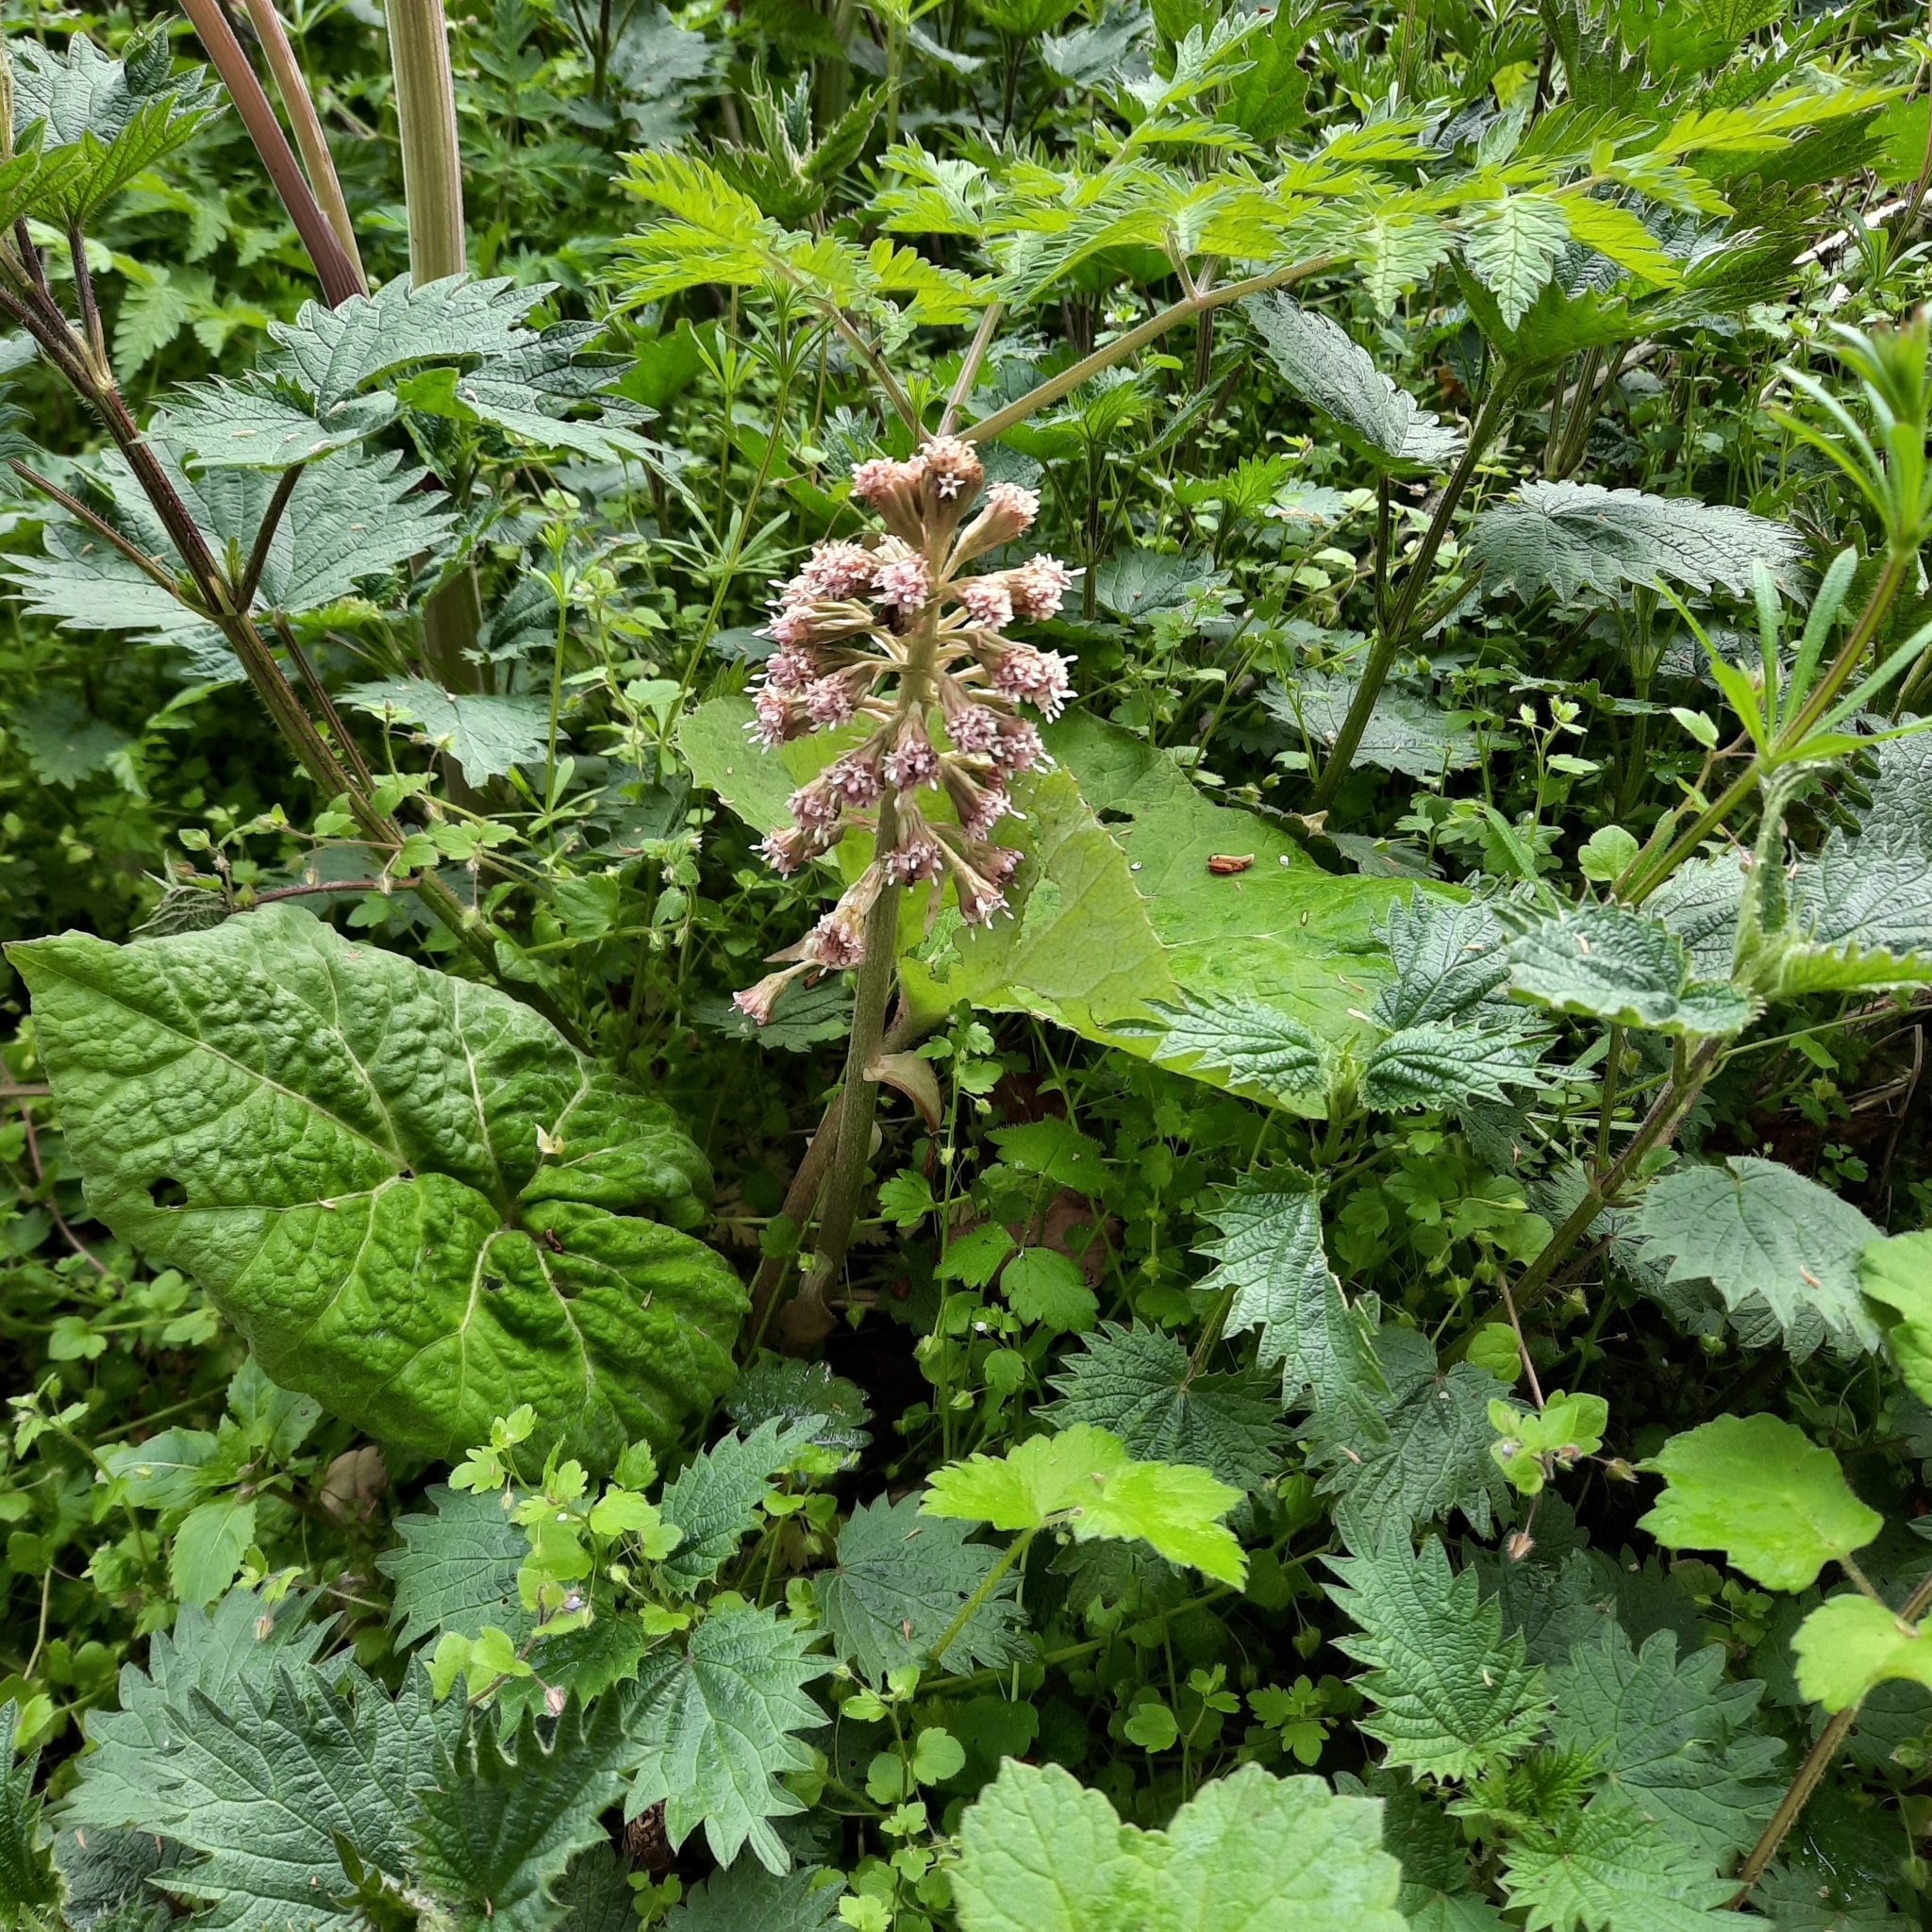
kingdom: Plantae
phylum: Tracheophyta
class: Magnoliopsida
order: Asterales
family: Asteraceae
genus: Petasites
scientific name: Petasites hybridus
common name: Butterbur
